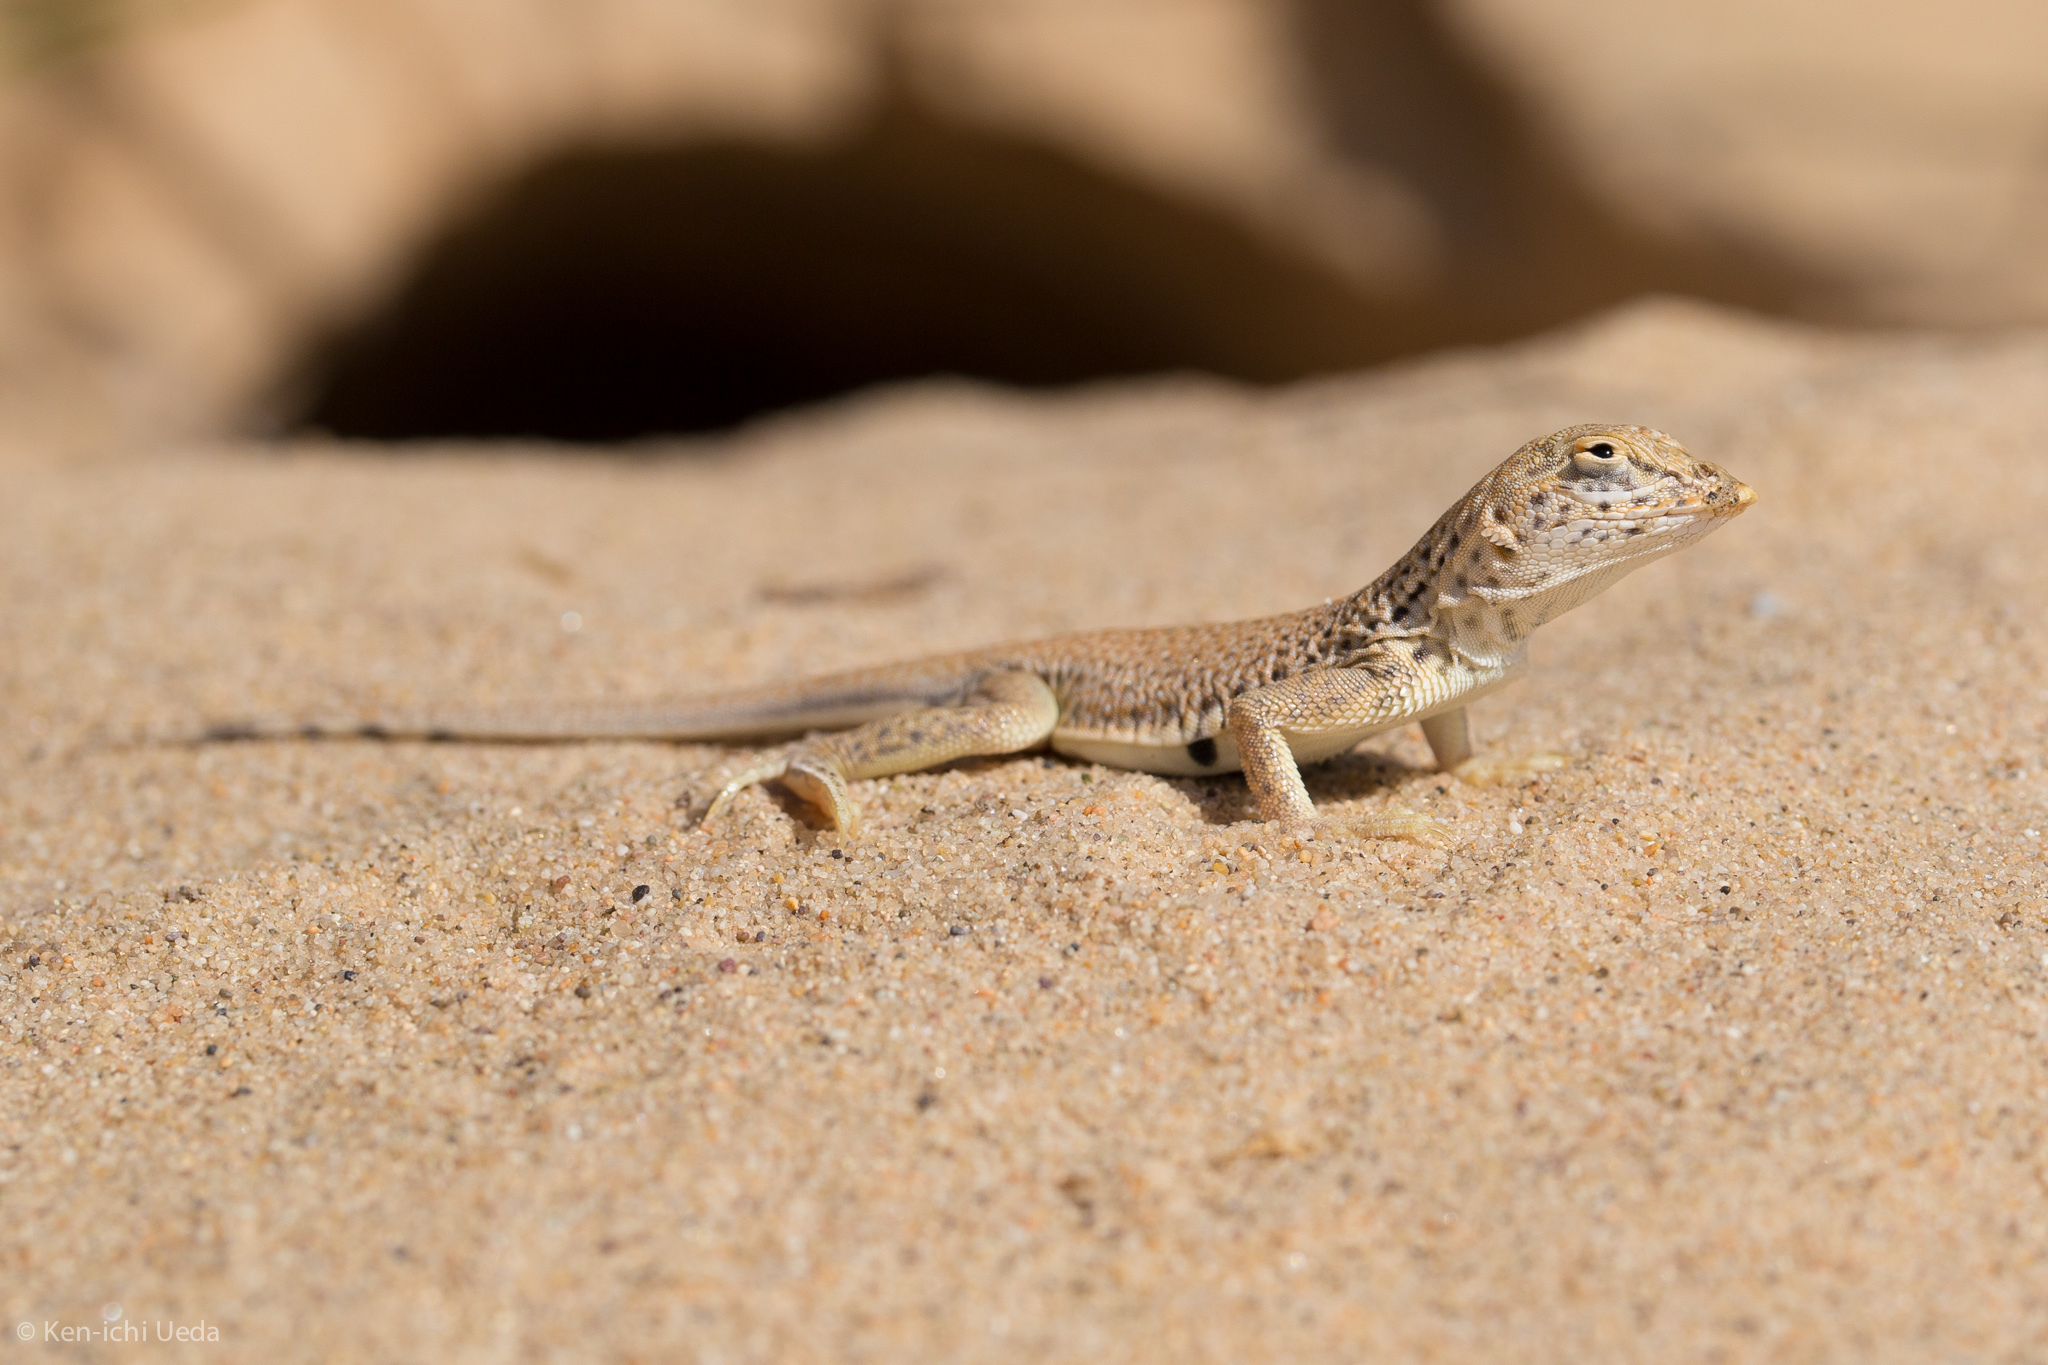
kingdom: Animalia
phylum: Chordata
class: Squamata
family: Phrynosomatidae
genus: Uma
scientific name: Uma scoparia
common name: Mojave fringe-toed lizard
